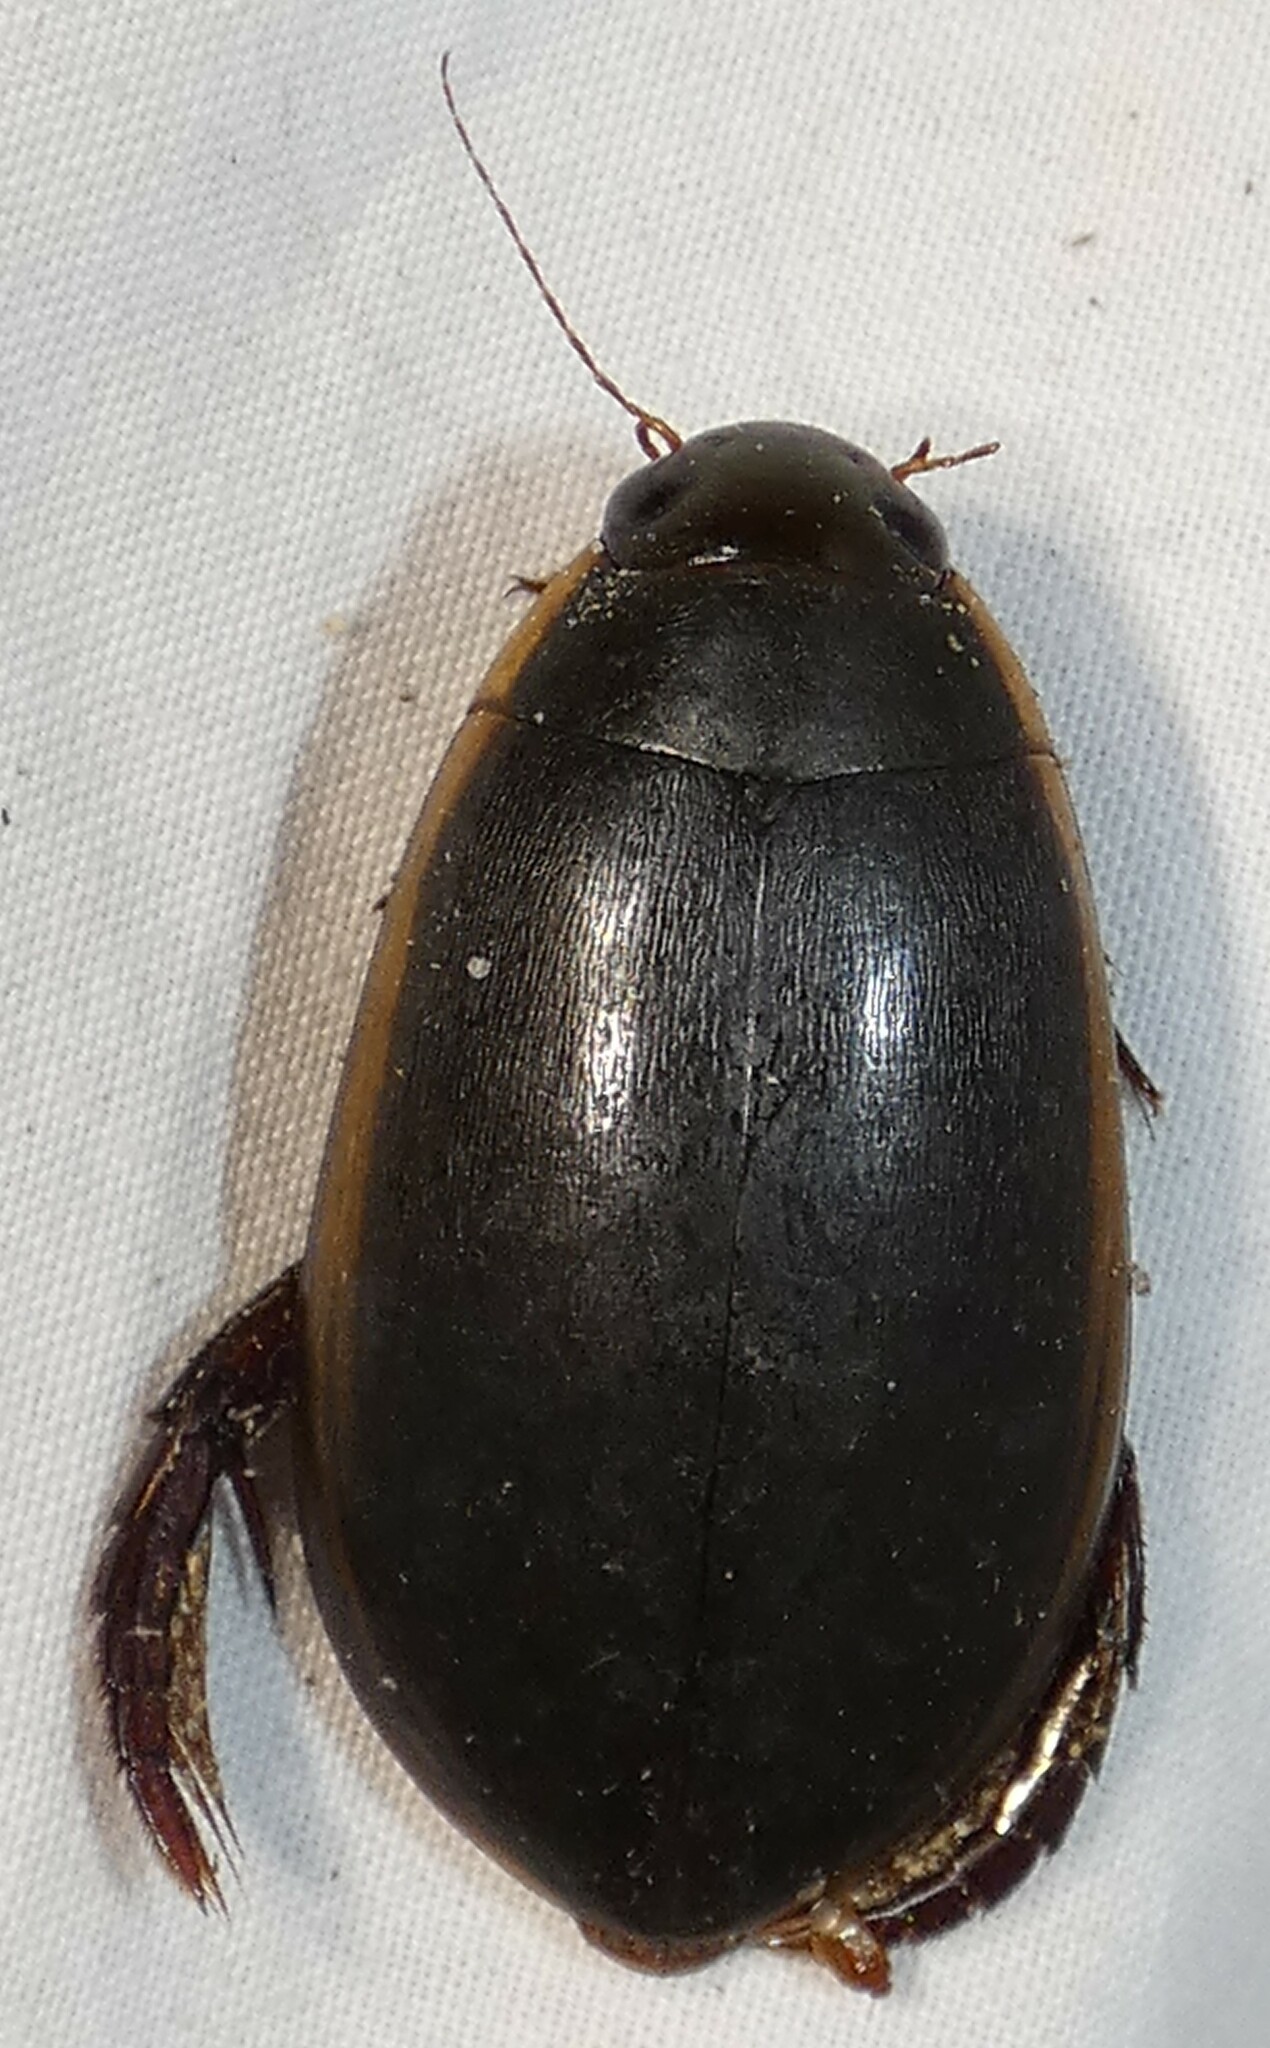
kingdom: Animalia
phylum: Arthropoda
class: Insecta
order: Coleoptera
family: Dytiscidae
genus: Cybister
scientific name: Cybister fimbriolatus
